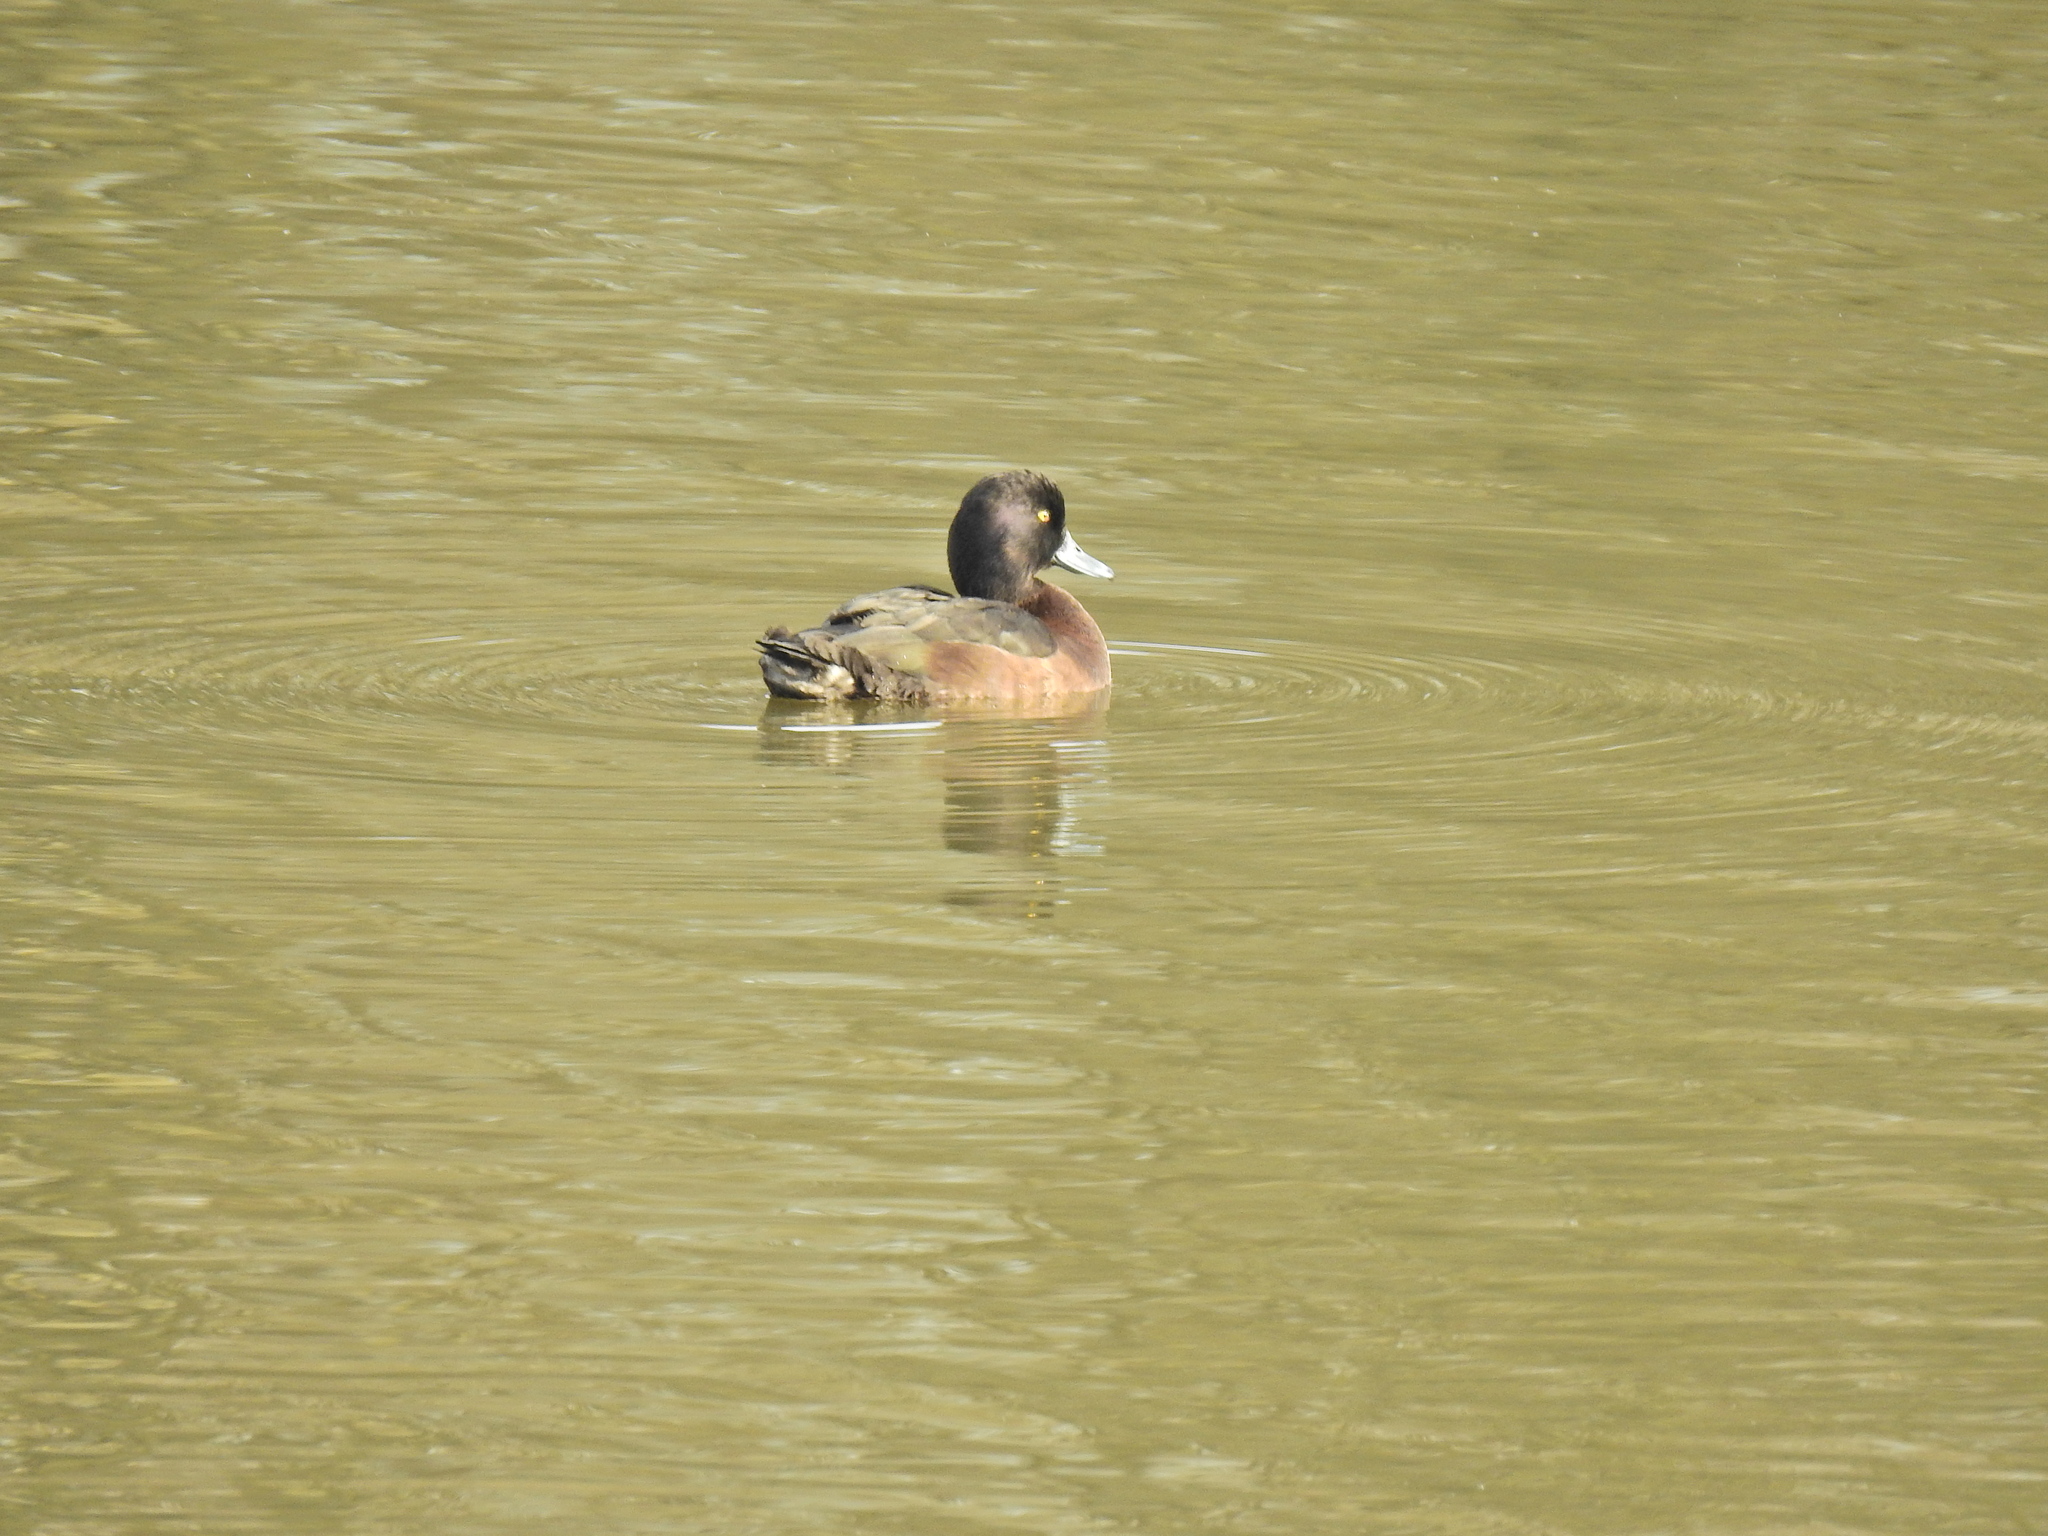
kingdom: Animalia
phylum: Chordata
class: Aves
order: Anseriformes
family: Anatidae
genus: Aythya
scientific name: Aythya fuligula
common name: Tufted duck
